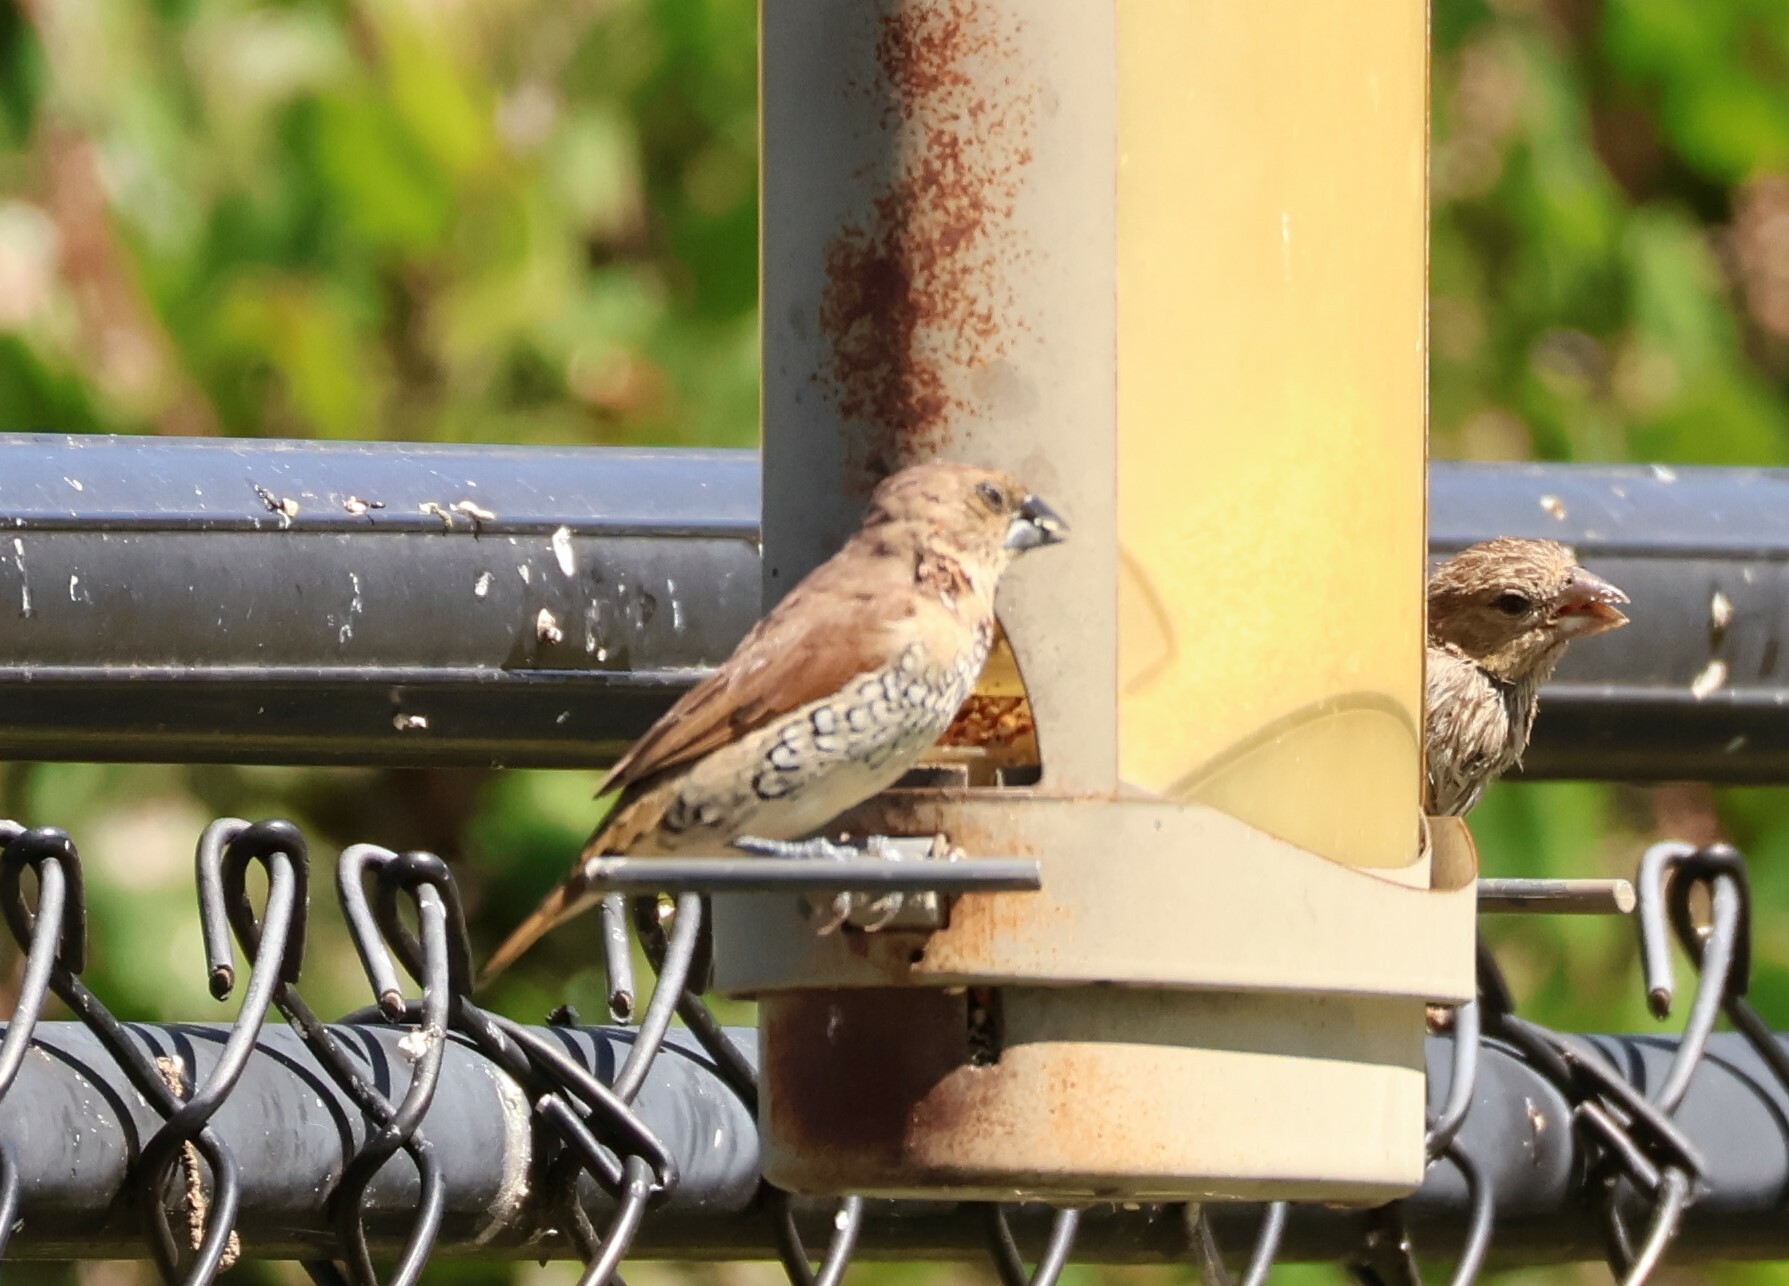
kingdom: Animalia
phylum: Chordata
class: Aves
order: Passeriformes
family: Estrildidae
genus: Lonchura
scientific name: Lonchura punctulata
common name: Scaly-breasted munia
